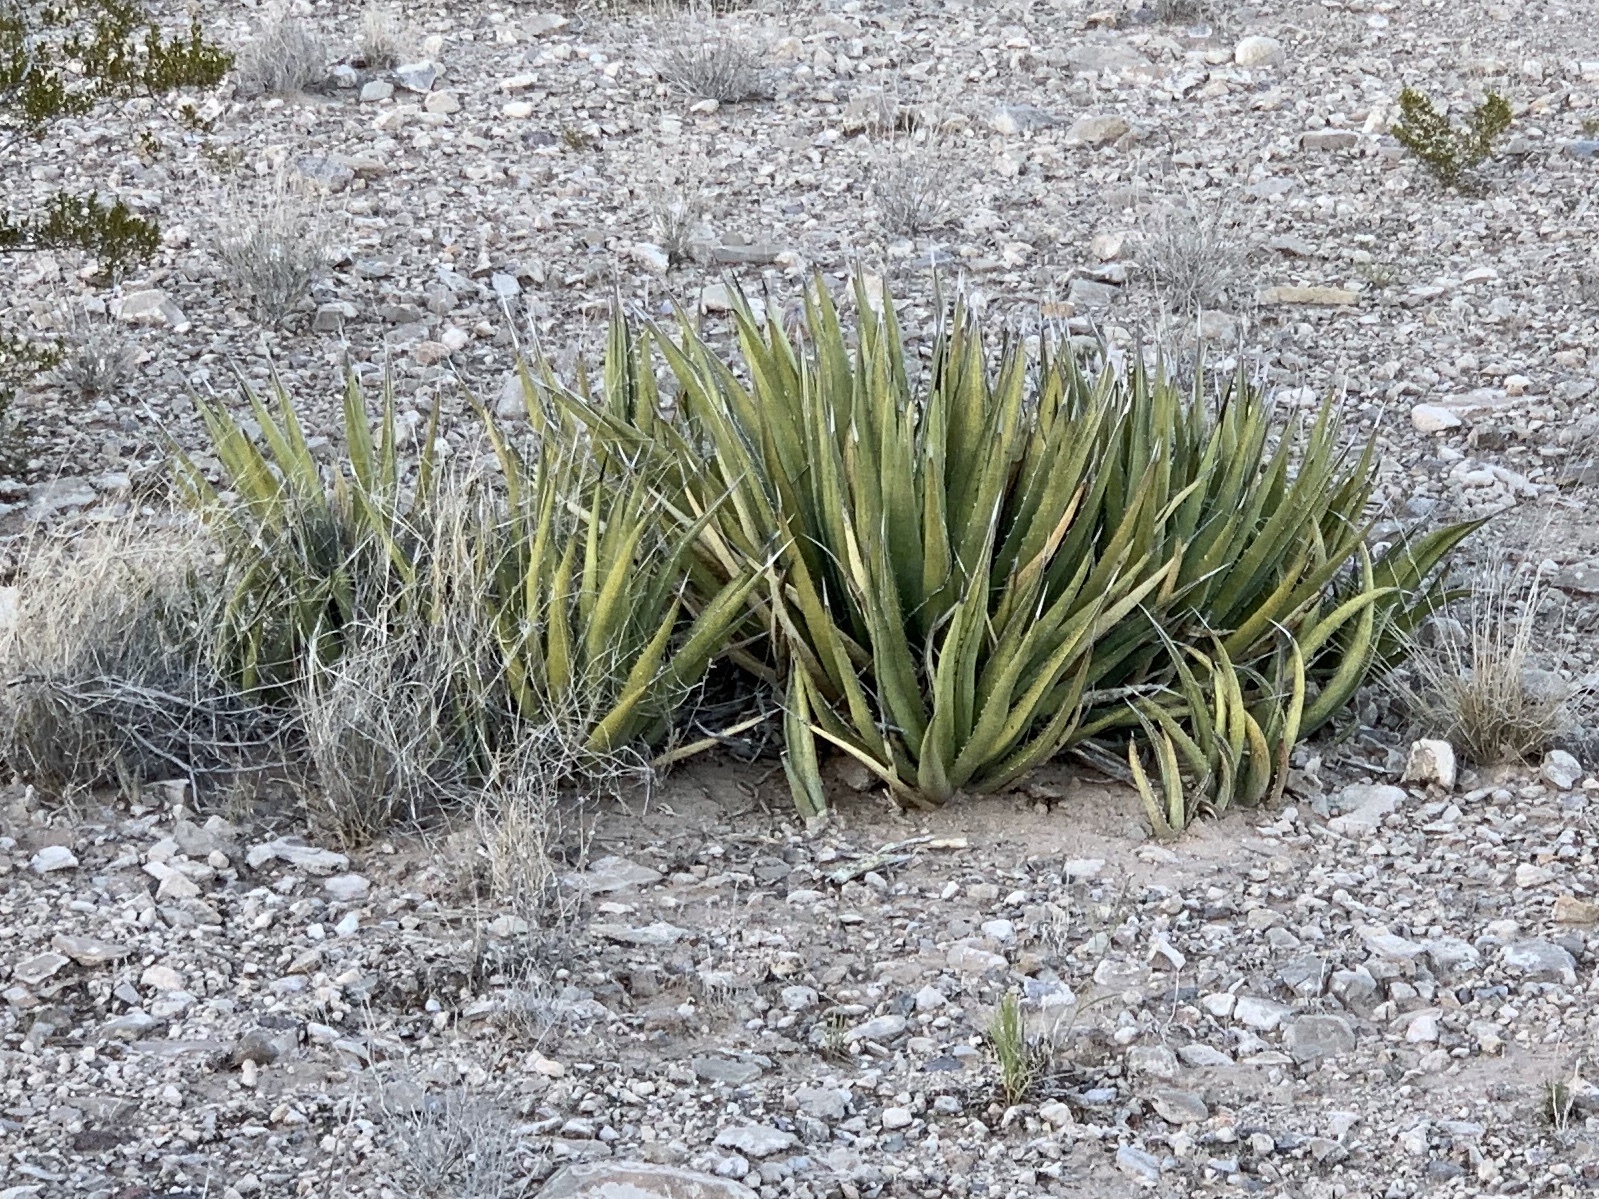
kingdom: Plantae
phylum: Tracheophyta
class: Liliopsida
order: Asparagales
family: Asparagaceae
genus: Agave
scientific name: Agave lechuguilla
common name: Lecheguilla agave
